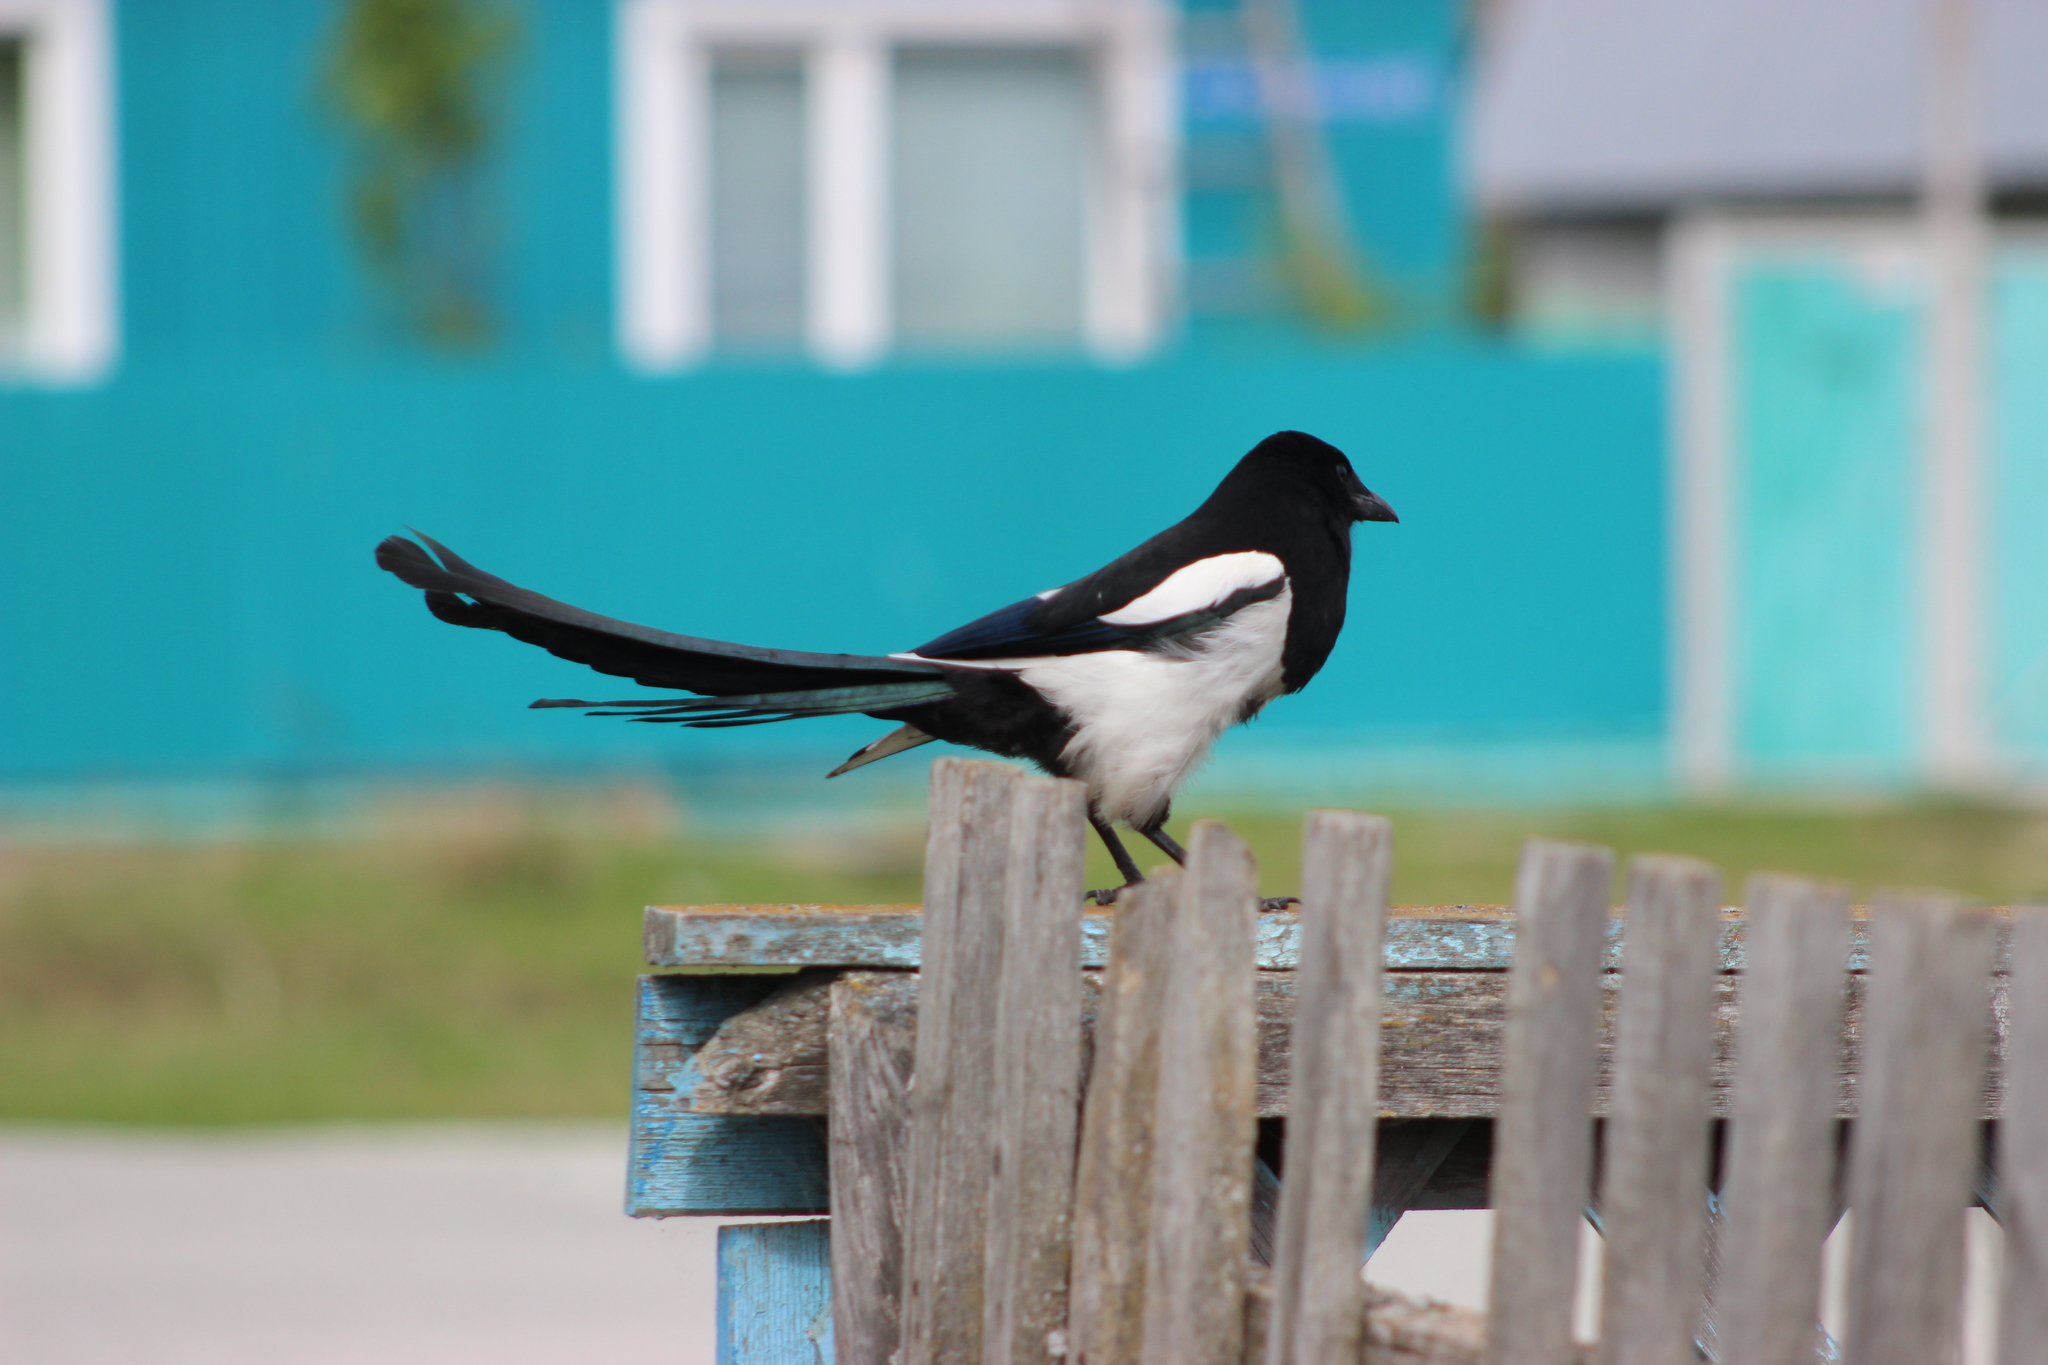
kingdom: Animalia
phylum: Chordata
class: Aves
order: Passeriformes
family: Corvidae
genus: Pica
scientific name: Pica pica
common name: Eurasian magpie
